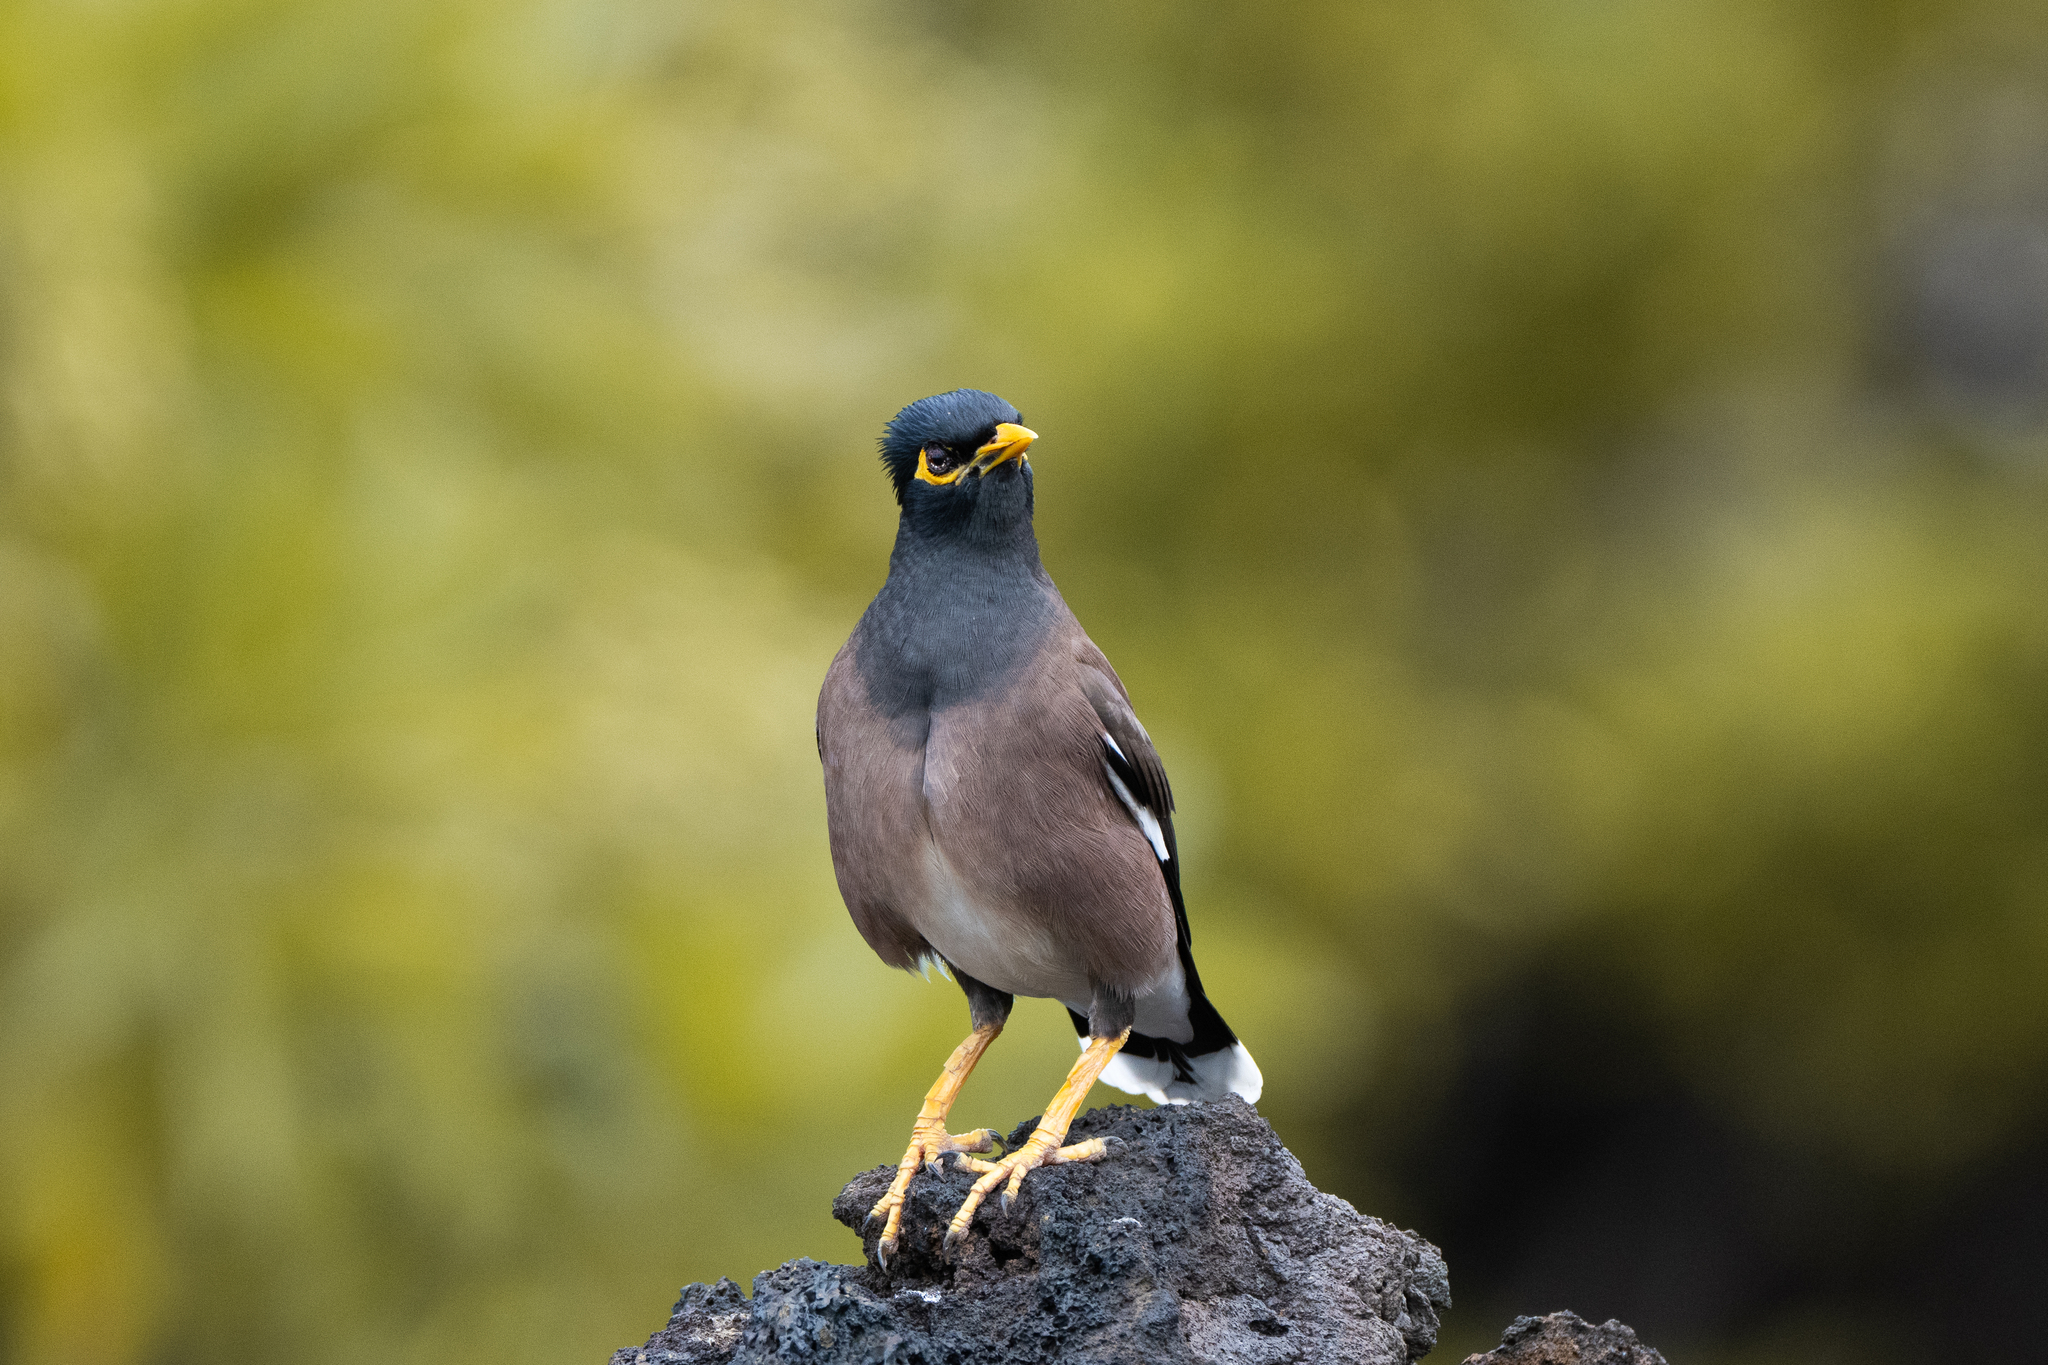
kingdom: Animalia
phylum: Chordata
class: Aves
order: Passeriformes
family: Sturnidae
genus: Acridotheres
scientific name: Acridotheres tristis
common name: Common myna
